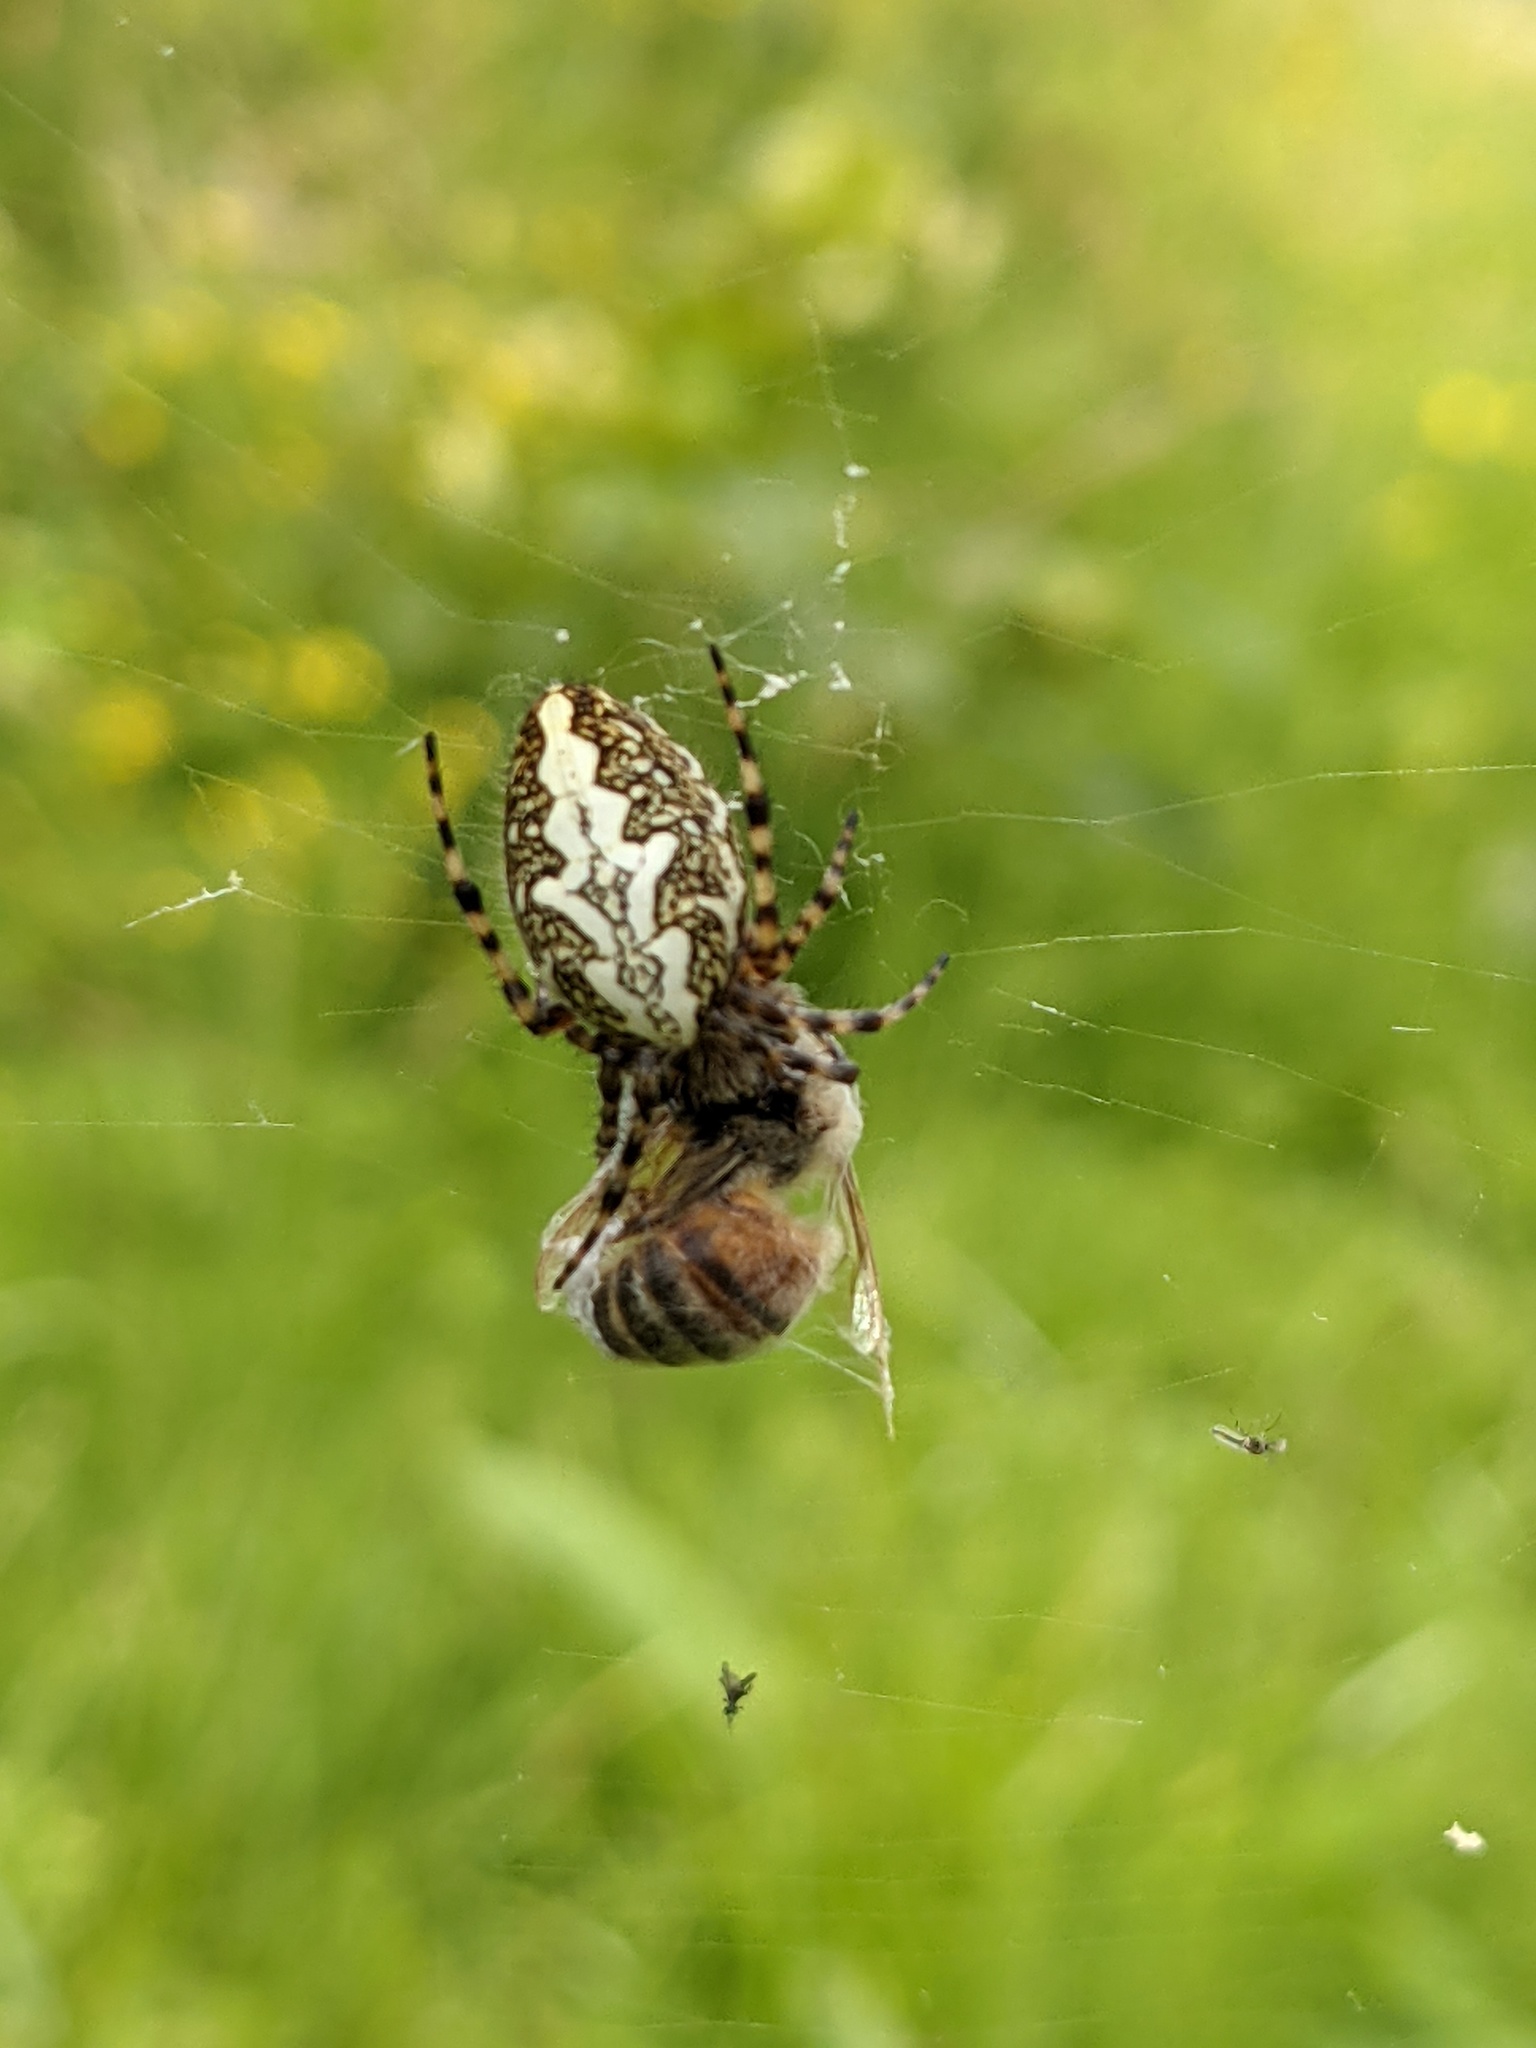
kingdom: Animalia
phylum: Arthropoda
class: Arachnida
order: Araneae
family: Araneidae
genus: Aculepeira
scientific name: Aculepeira ceropegia
